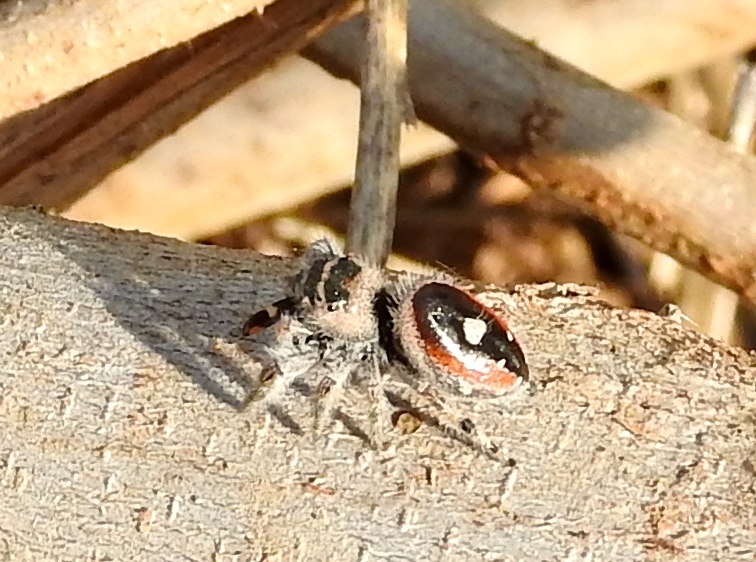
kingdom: Animalia
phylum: Arthropoda
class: Arachnida
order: Araneae
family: Salticidae
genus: Phidippus
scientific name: Phidippus californicus
